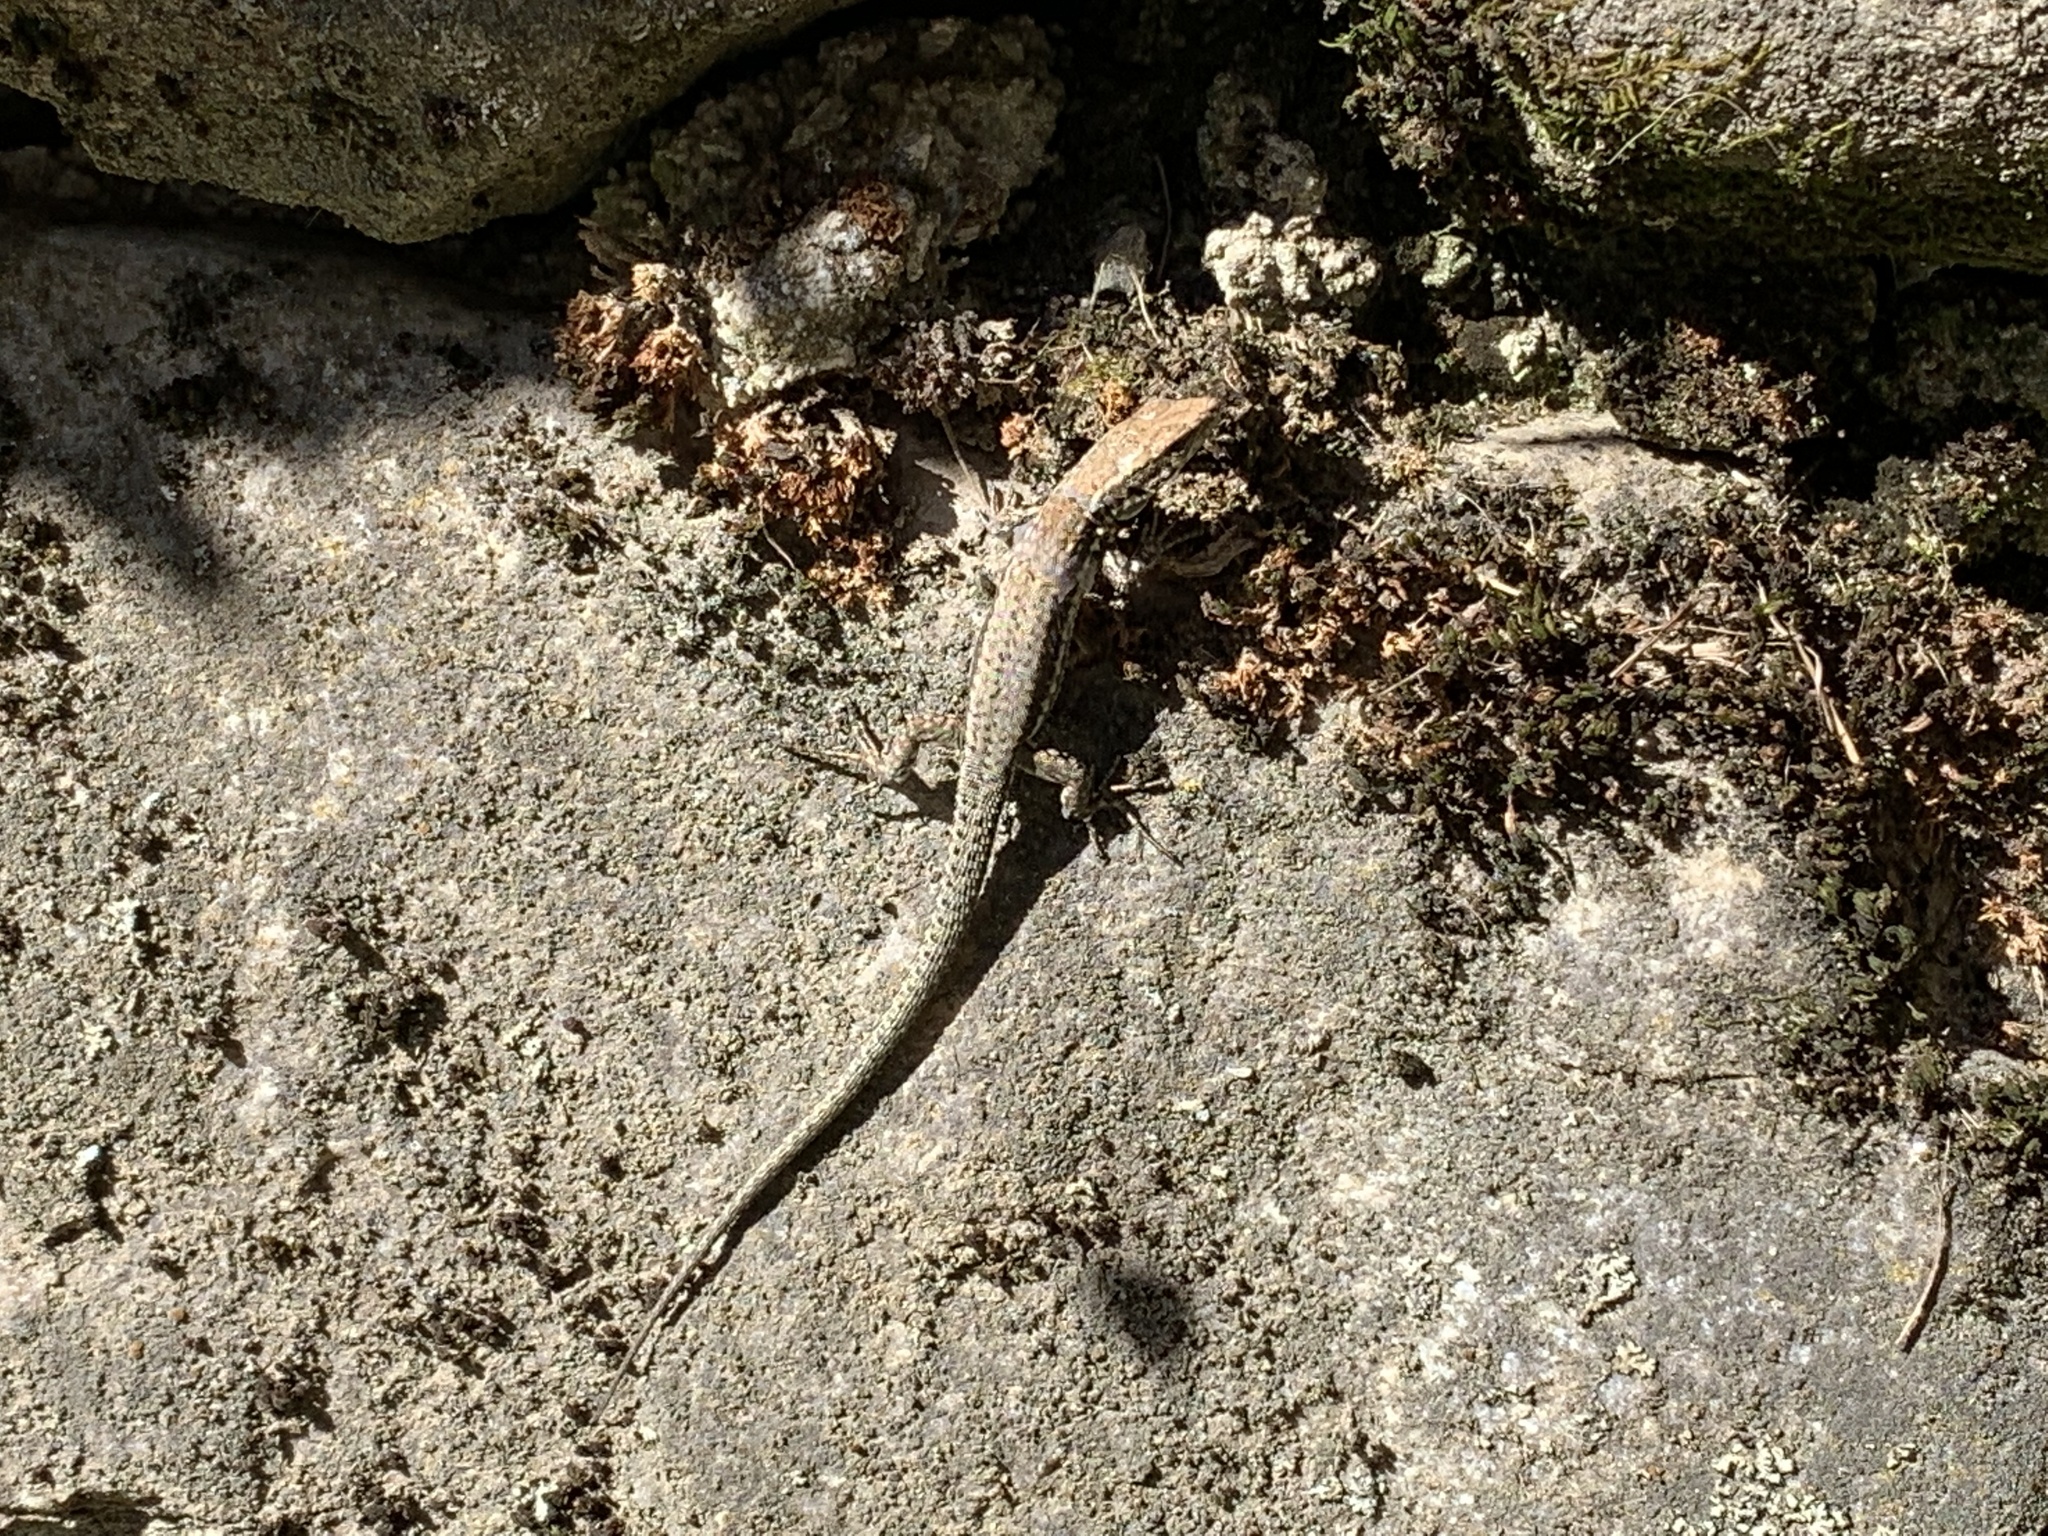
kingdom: Animalia
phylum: Chordata
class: Squamata
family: Lacertidae
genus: Podarcis
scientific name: Podarcis muralis
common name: Common wall lizard
